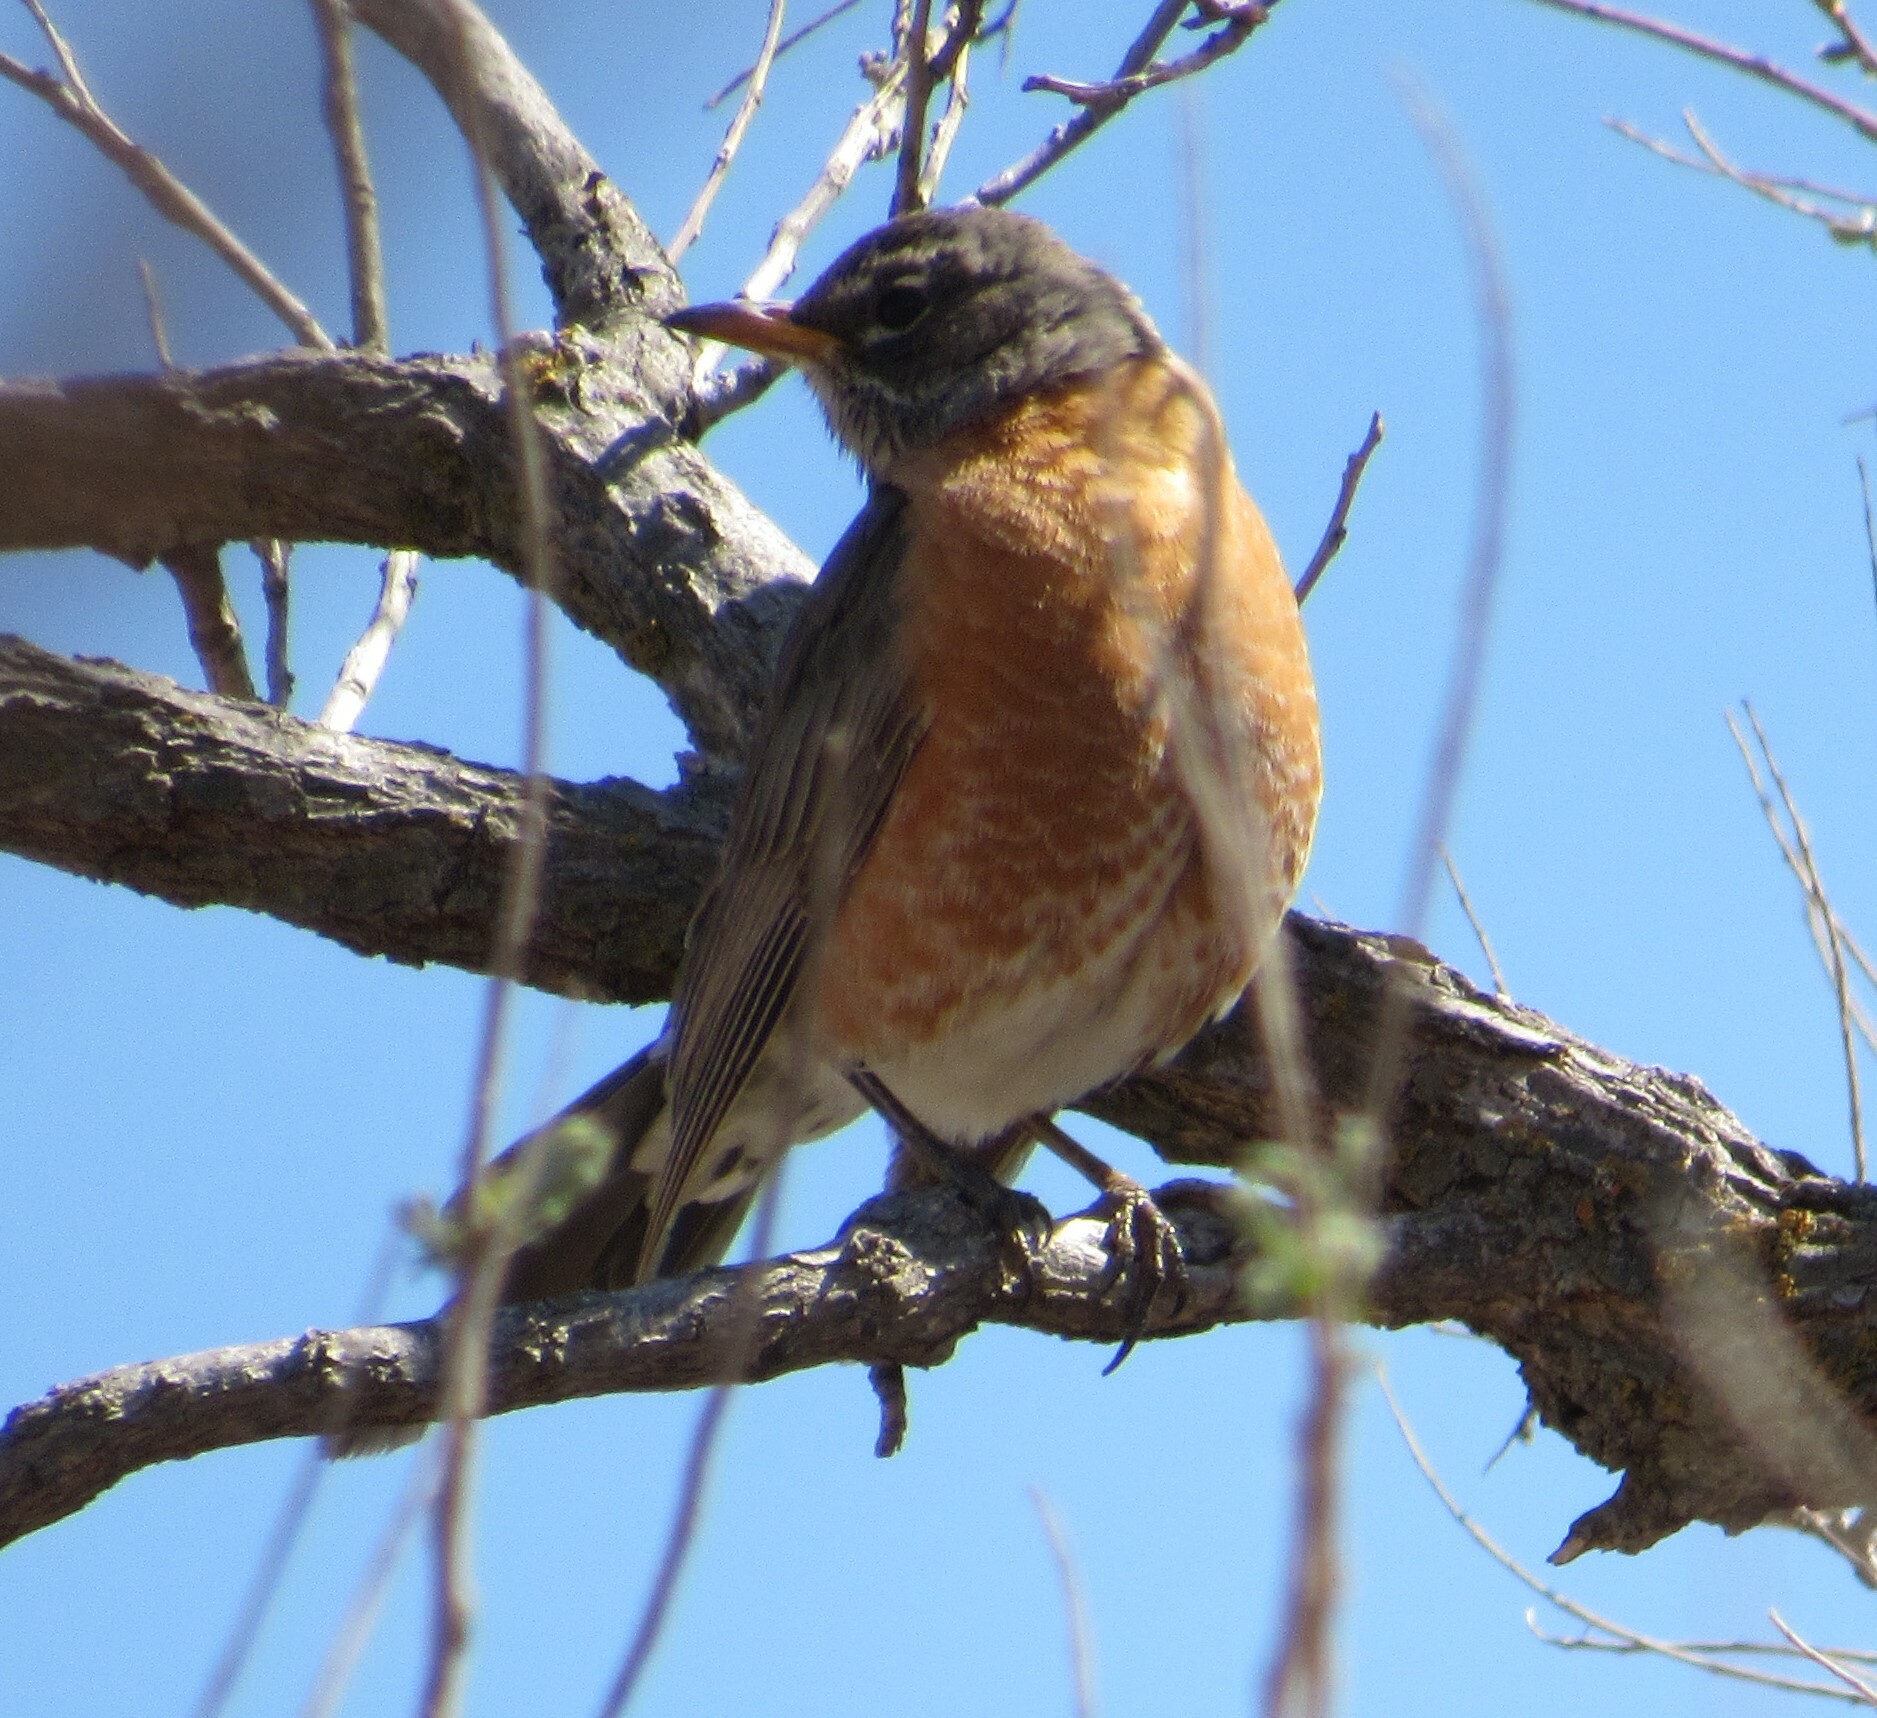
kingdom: Animalia
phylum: Chordata
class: Aves
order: Passeriformes
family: Turdidae
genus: Turdus
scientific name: Turdus migratorius
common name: American robin
